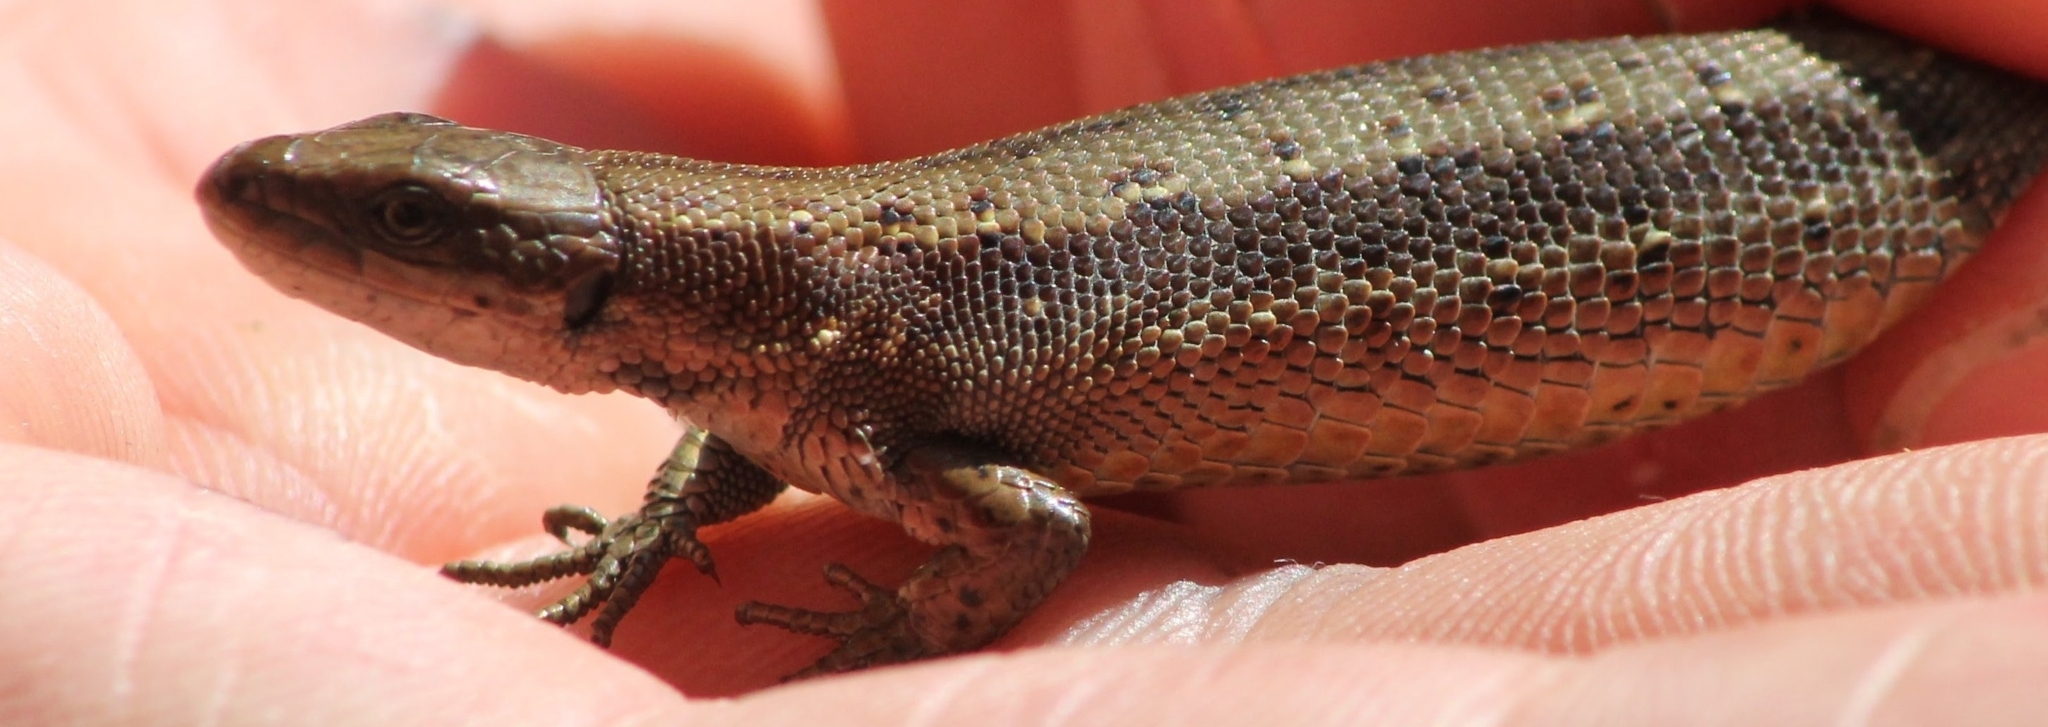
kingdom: Animalia
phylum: Chordata
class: Squamata
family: Lacertidae
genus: Zootoca
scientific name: Zootoca vivipara
